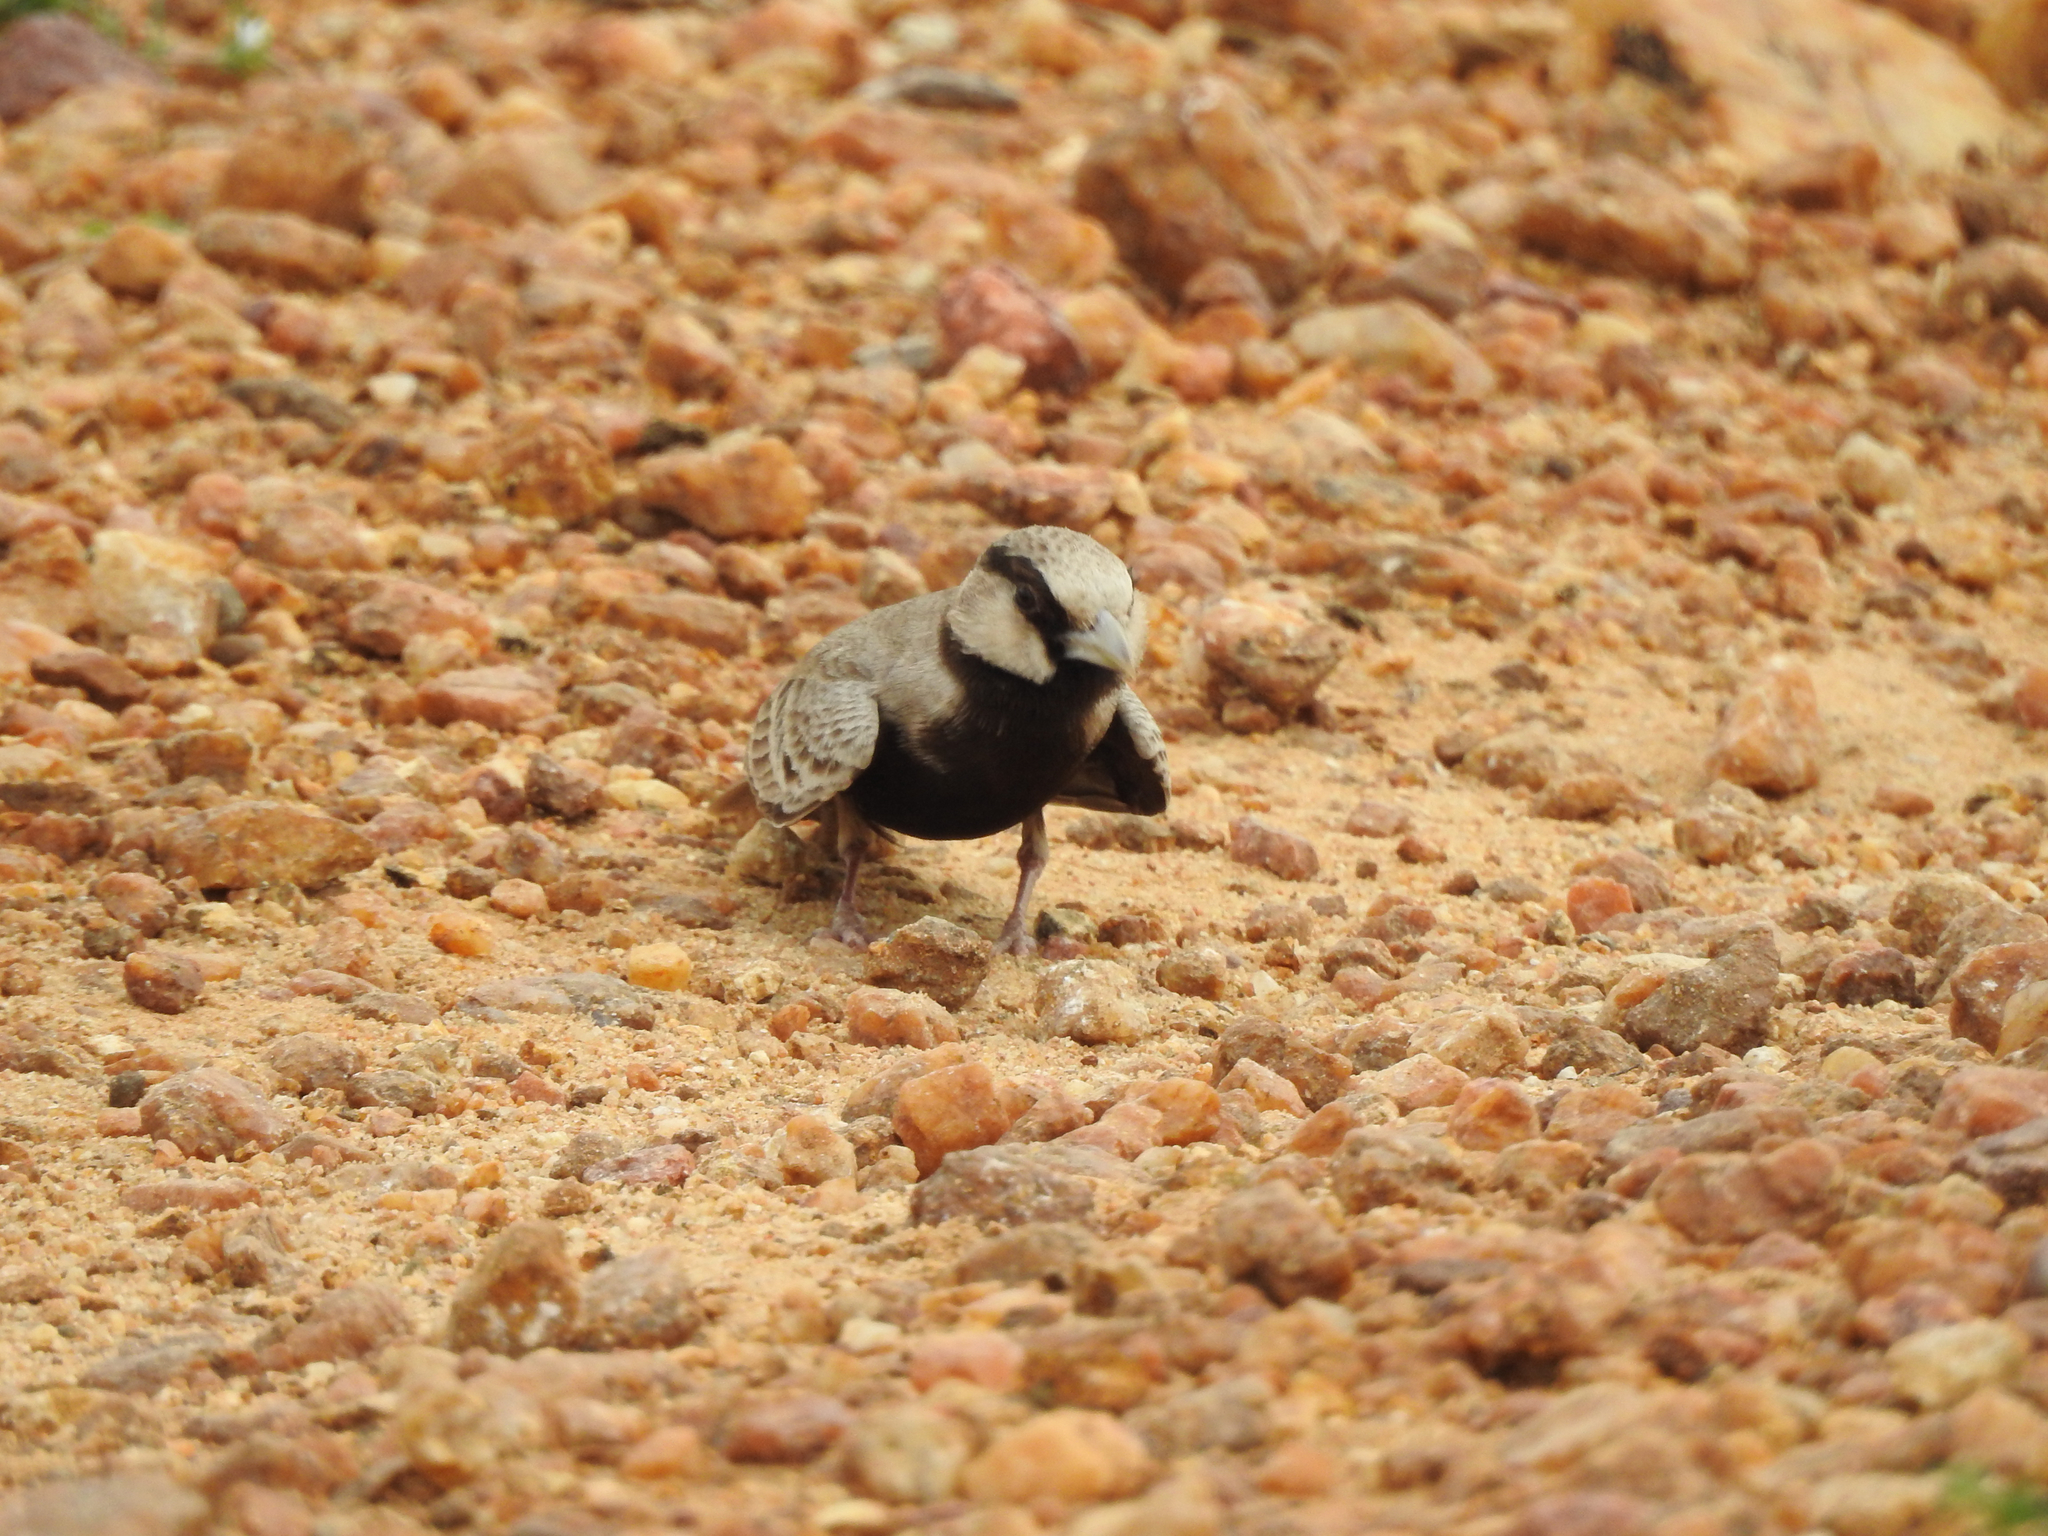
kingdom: Animalia
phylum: Chordata
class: Aves
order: Passeriformes
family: Alaudidae
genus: Eremopterix
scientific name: Eremopterix griseus
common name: Ashy-crowned sparrow-lark
